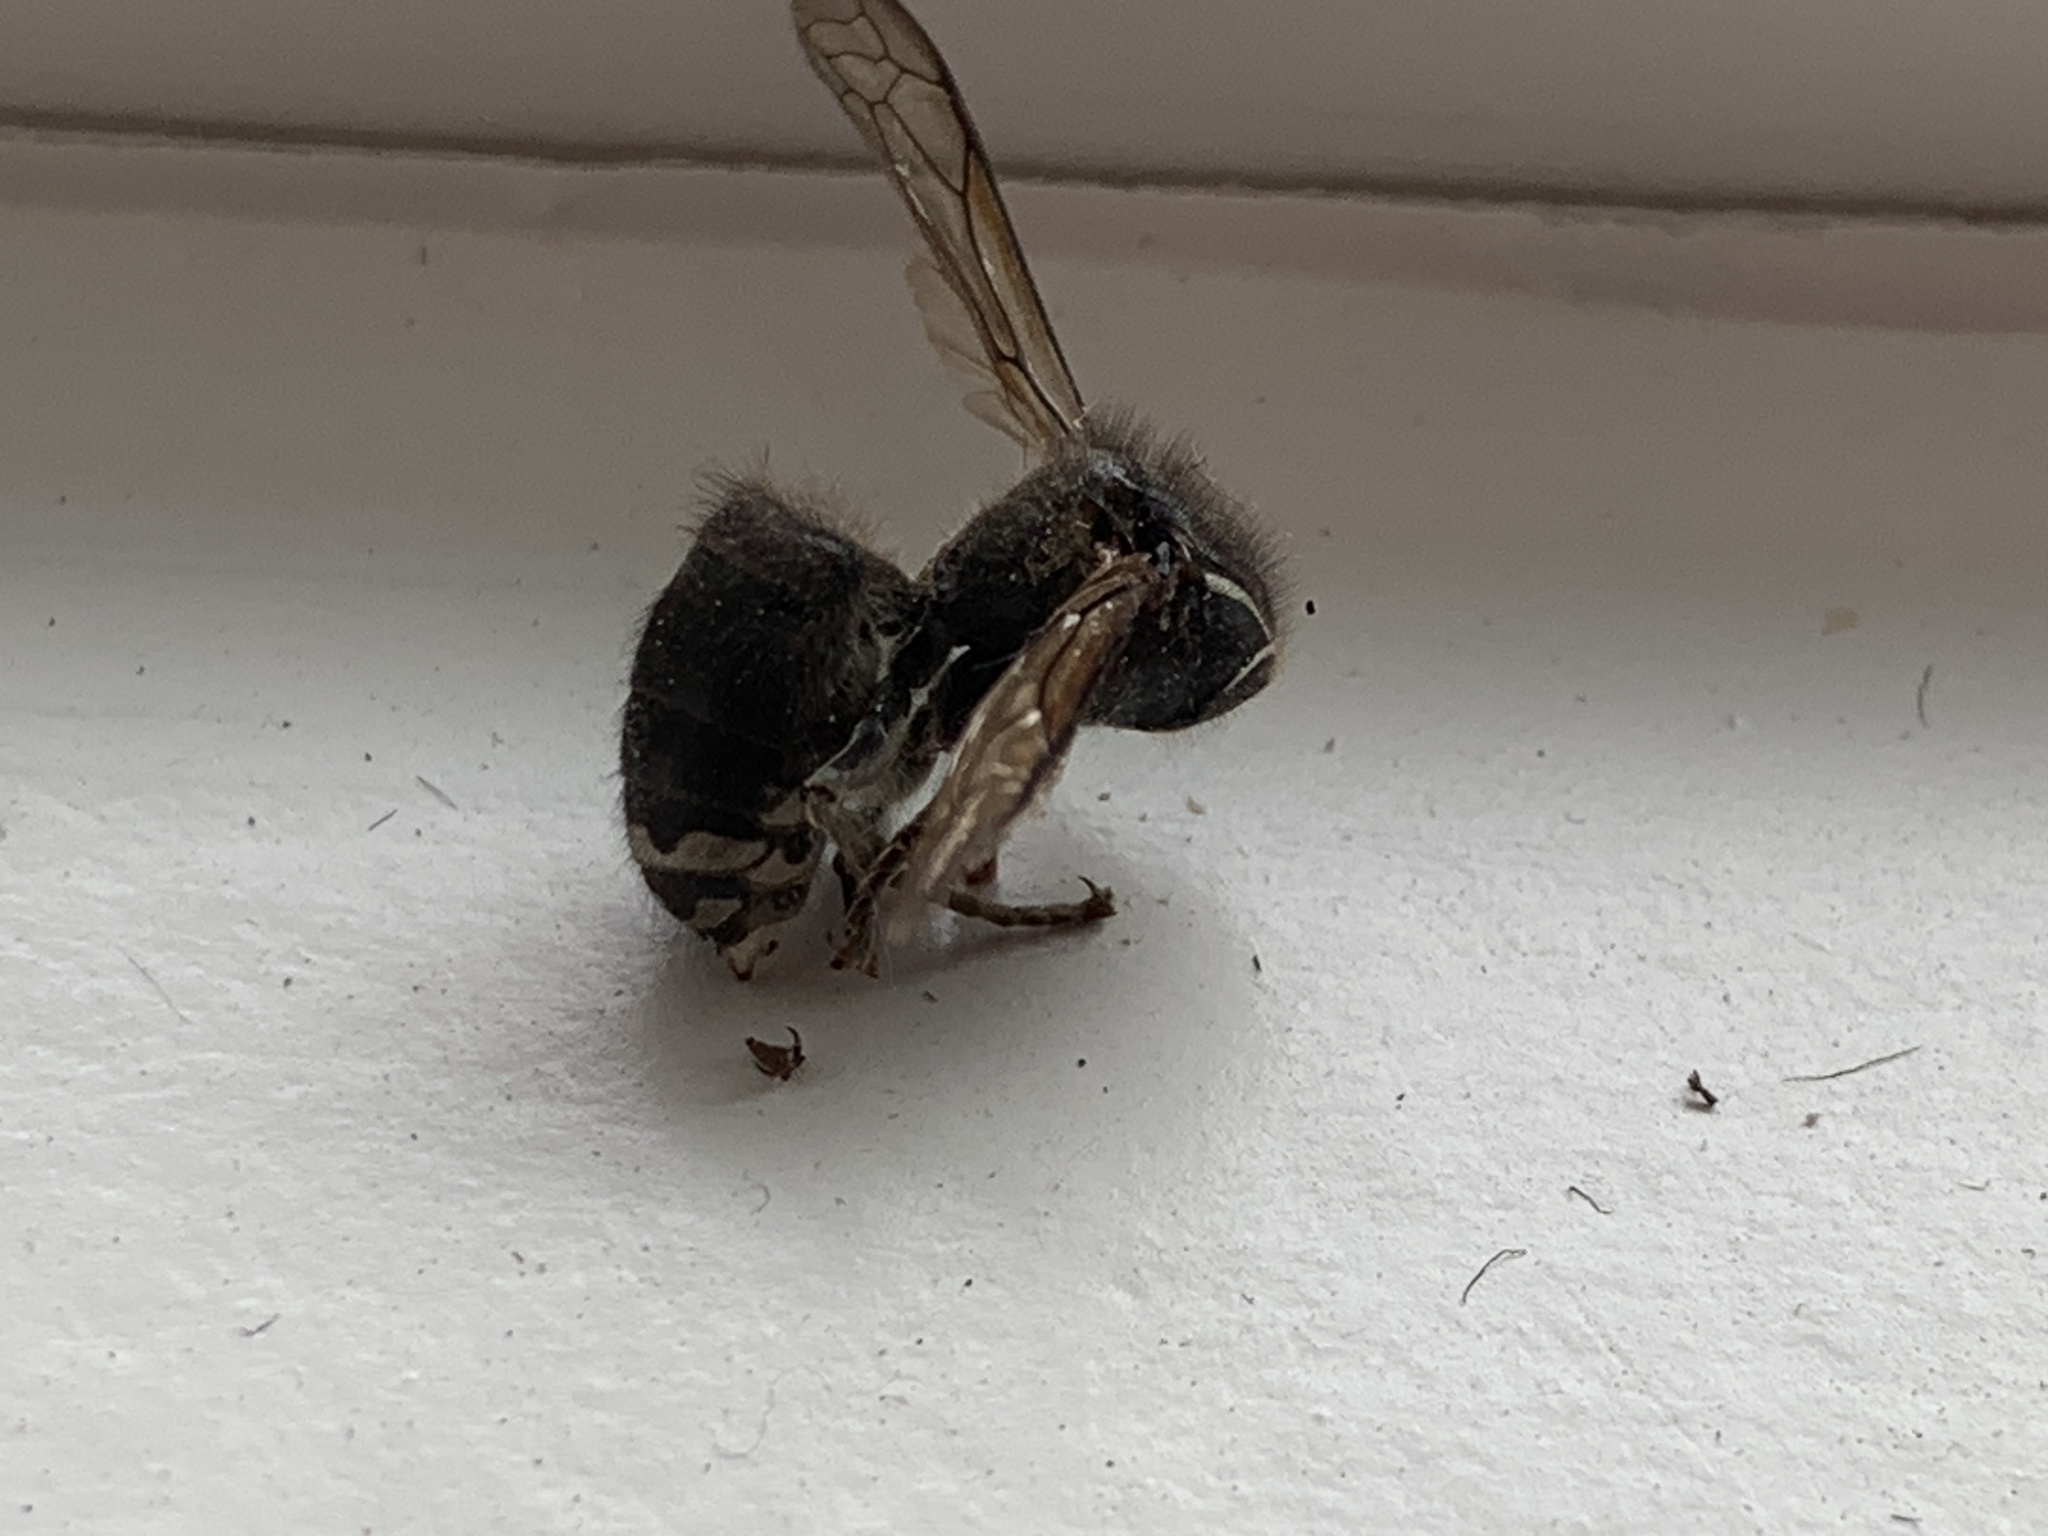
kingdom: Animalia
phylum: Arthropoda
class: Insecta
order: Hymenoptera
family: Vespidae
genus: Dolichovespula
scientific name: Dolichovespula maculata
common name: Bald-faced hornet
